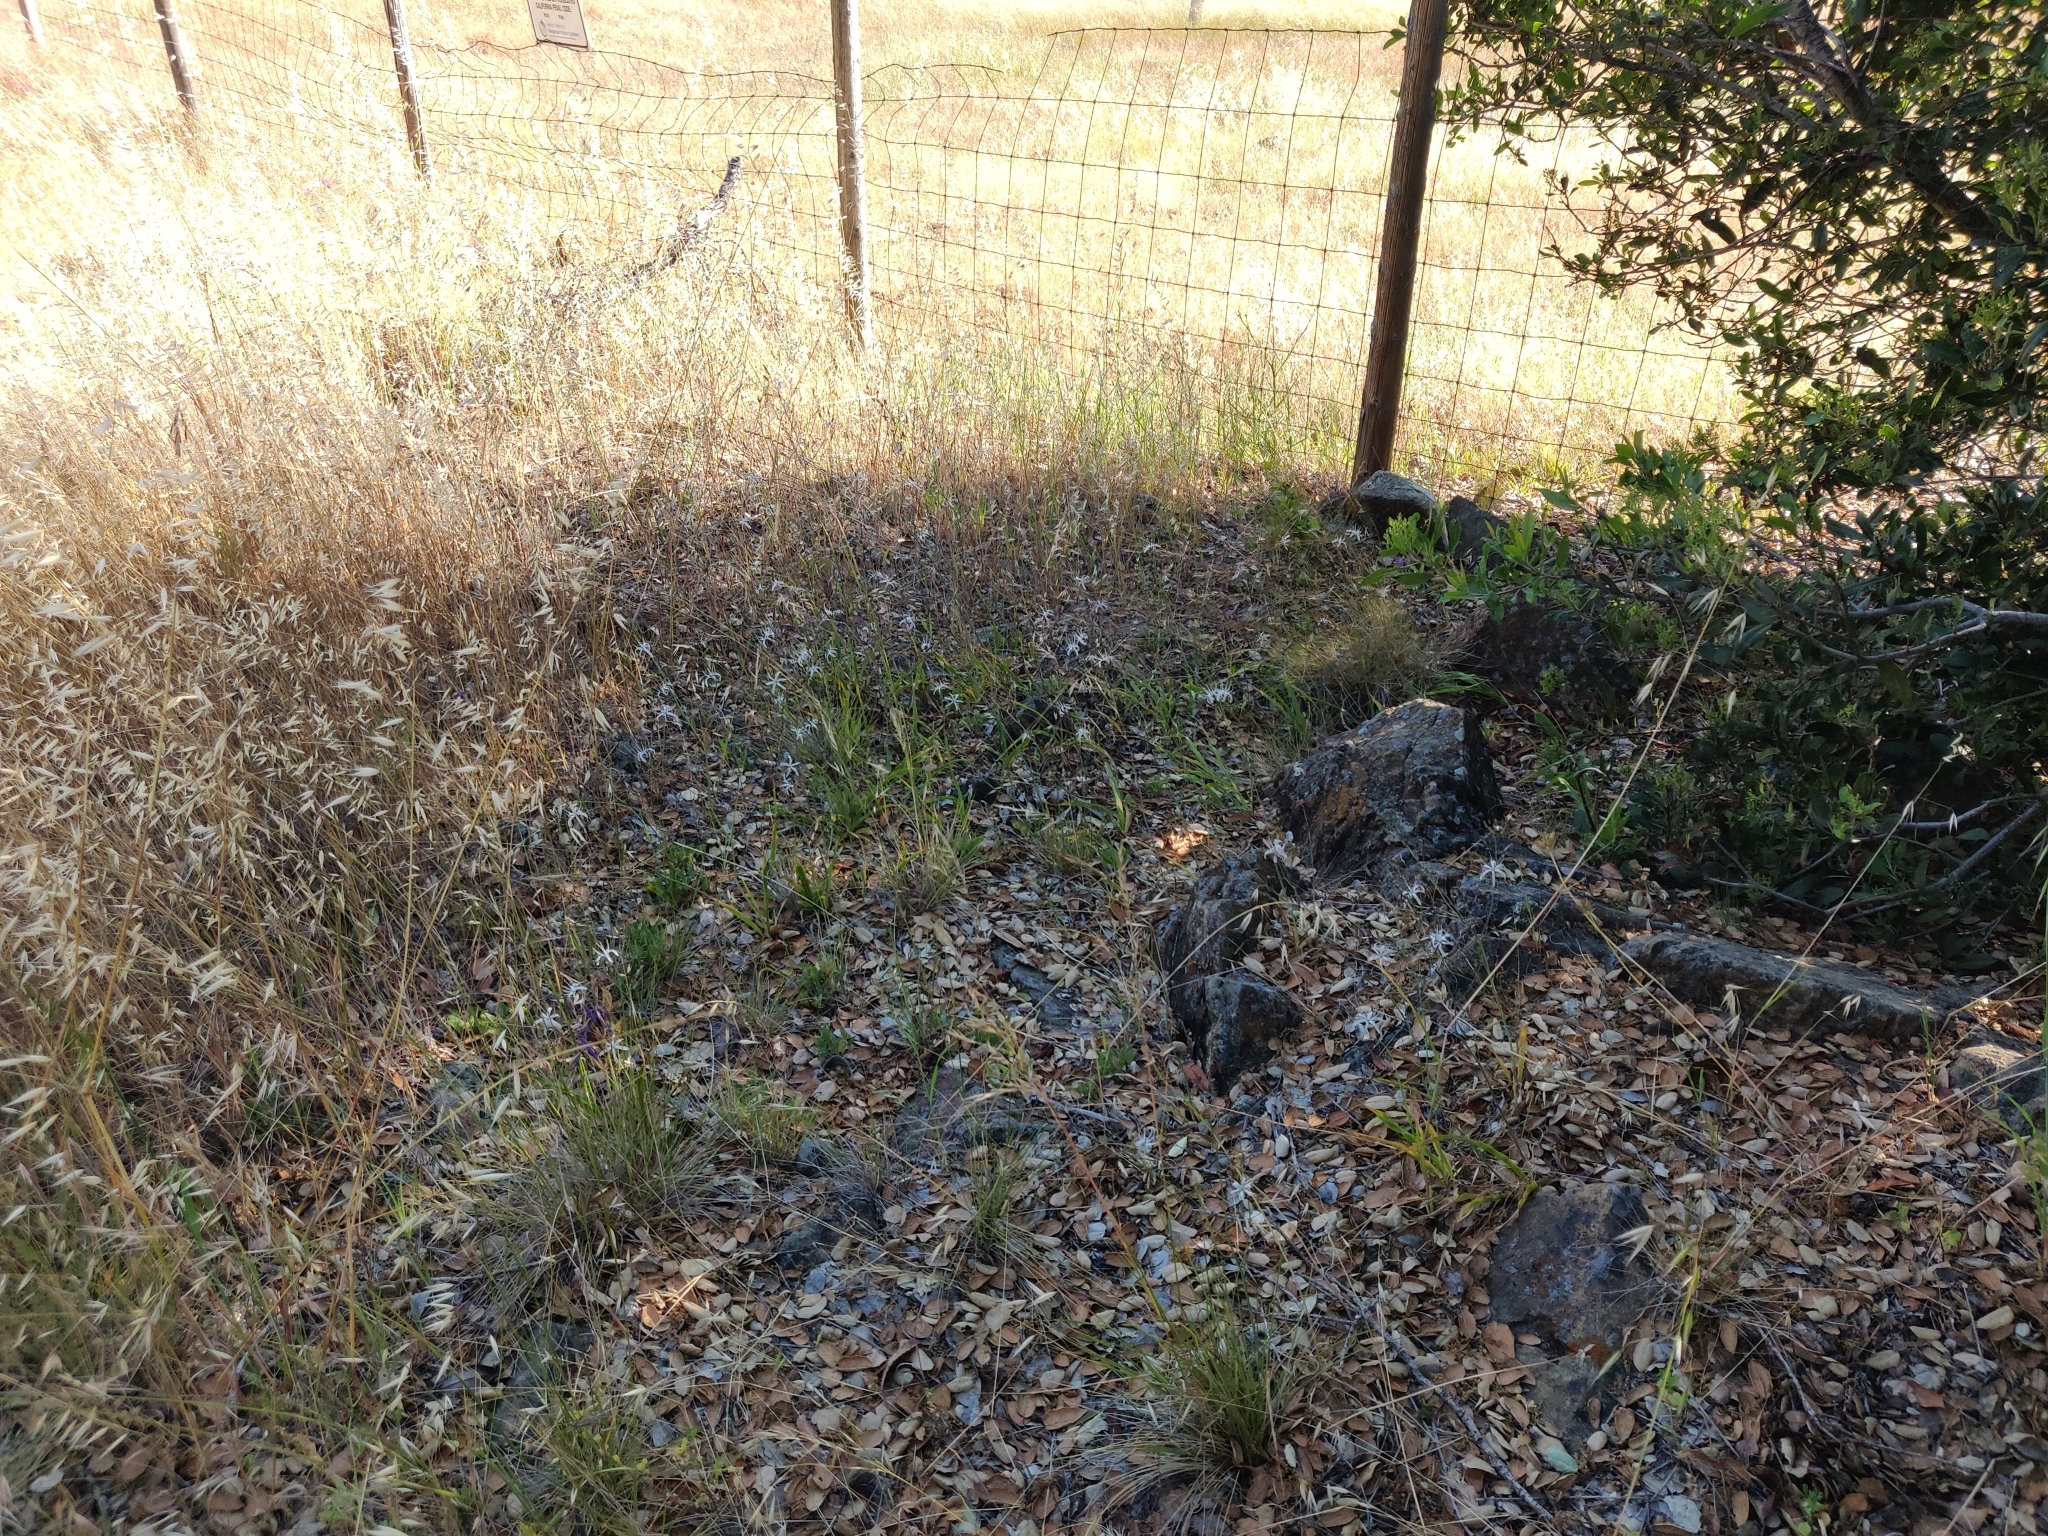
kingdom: Plantae
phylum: Tracheophyta
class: Liliopsida
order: Asparagales
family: Asparagaceae
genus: Chlorogalum
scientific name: Chlorogalum pomeridianum
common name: Amole
